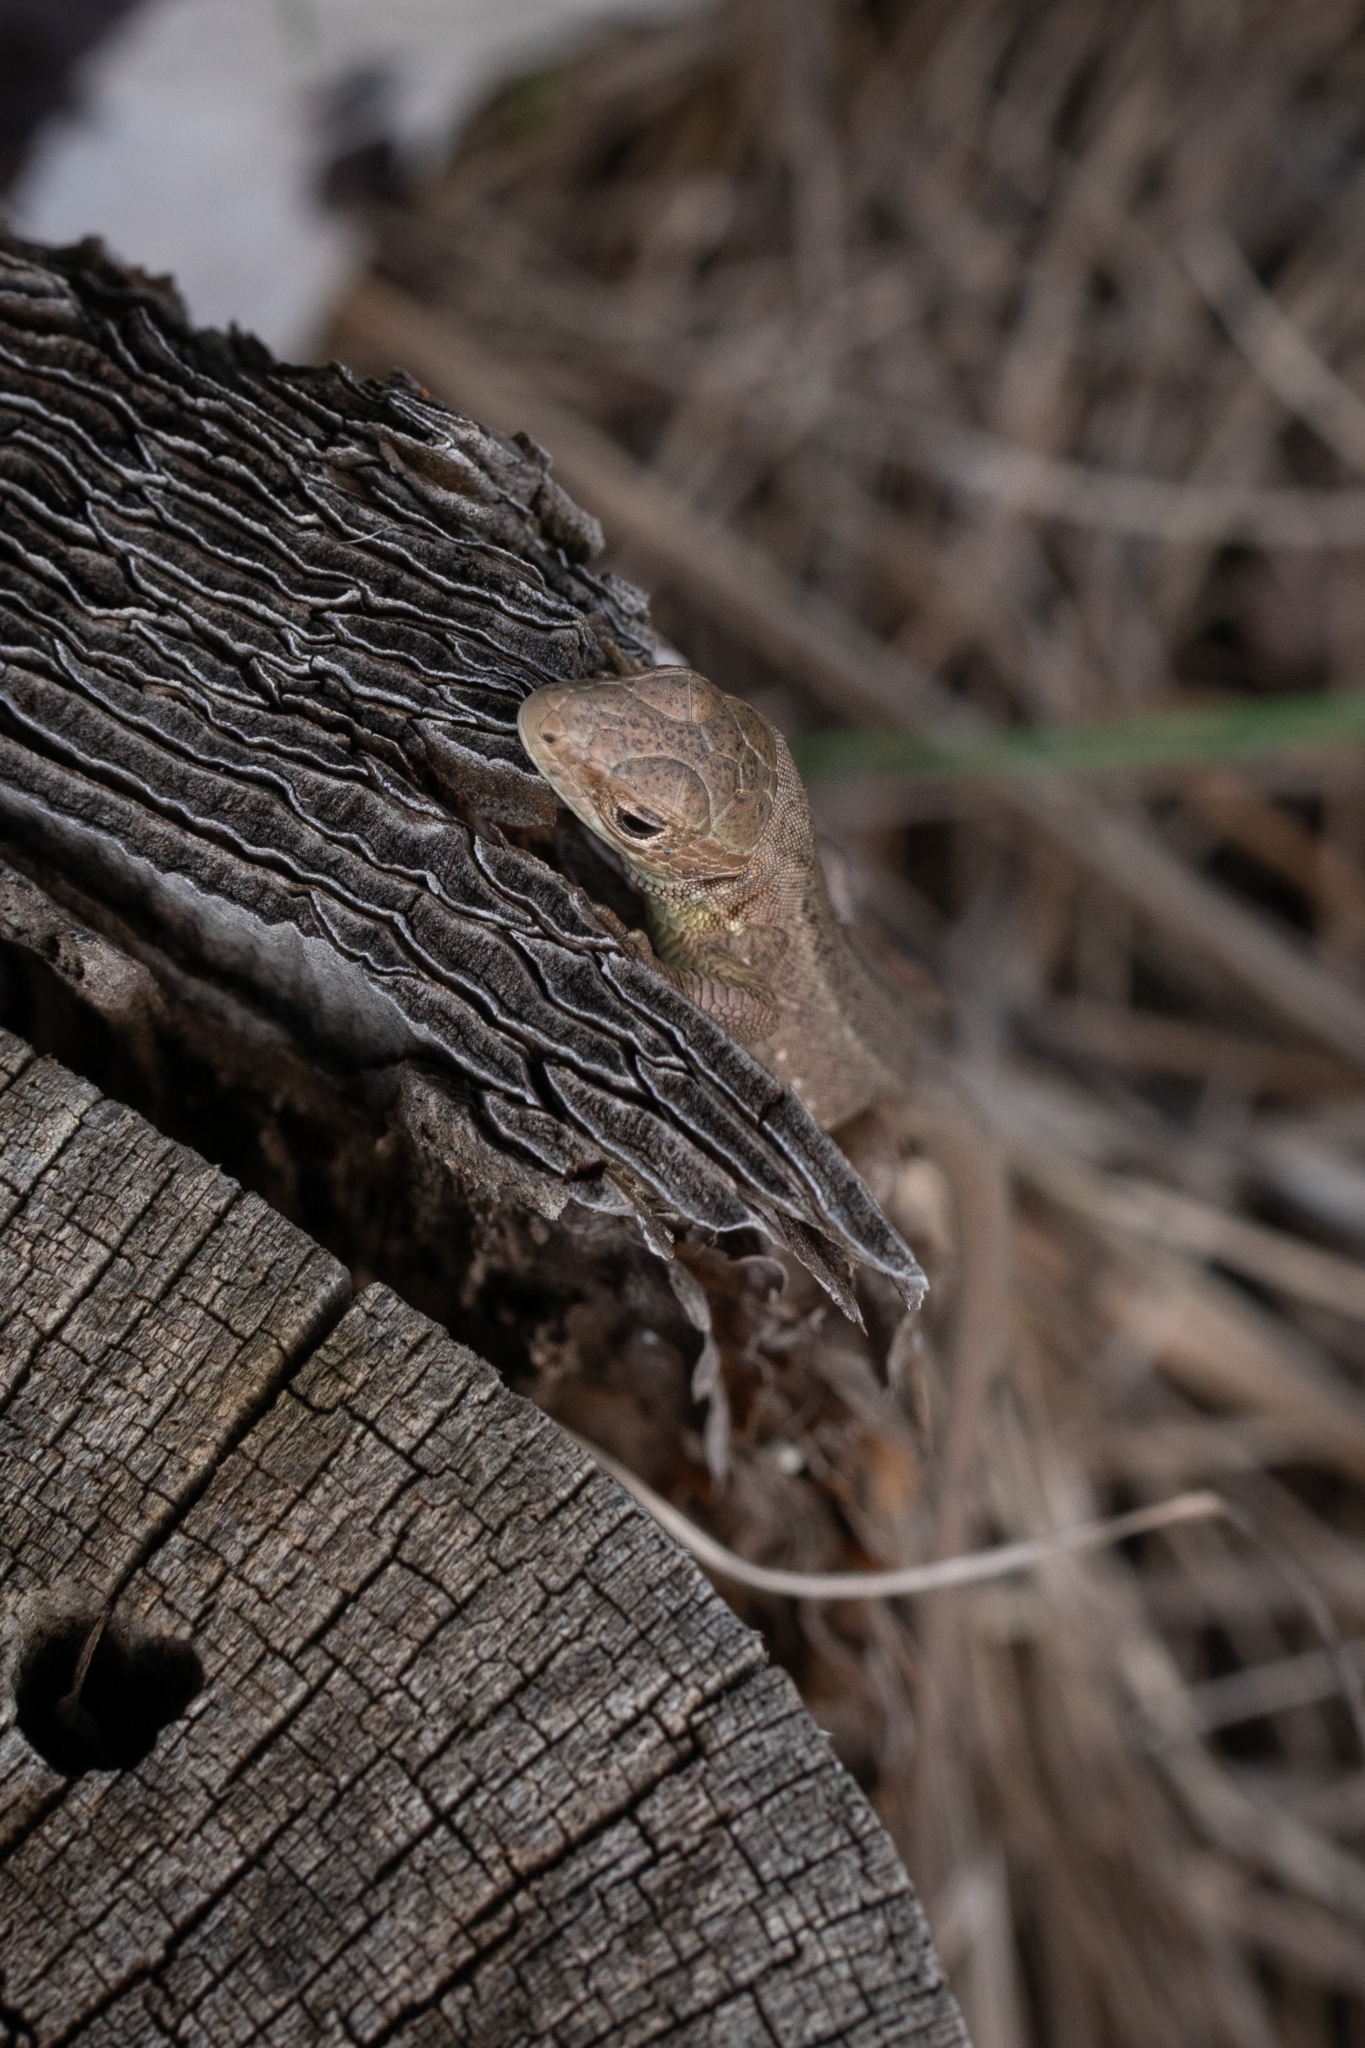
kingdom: Animalia
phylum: Chordata
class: Squamata
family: Lacertidae
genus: Lacerta
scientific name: Lacerta viridis
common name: European green lizard
